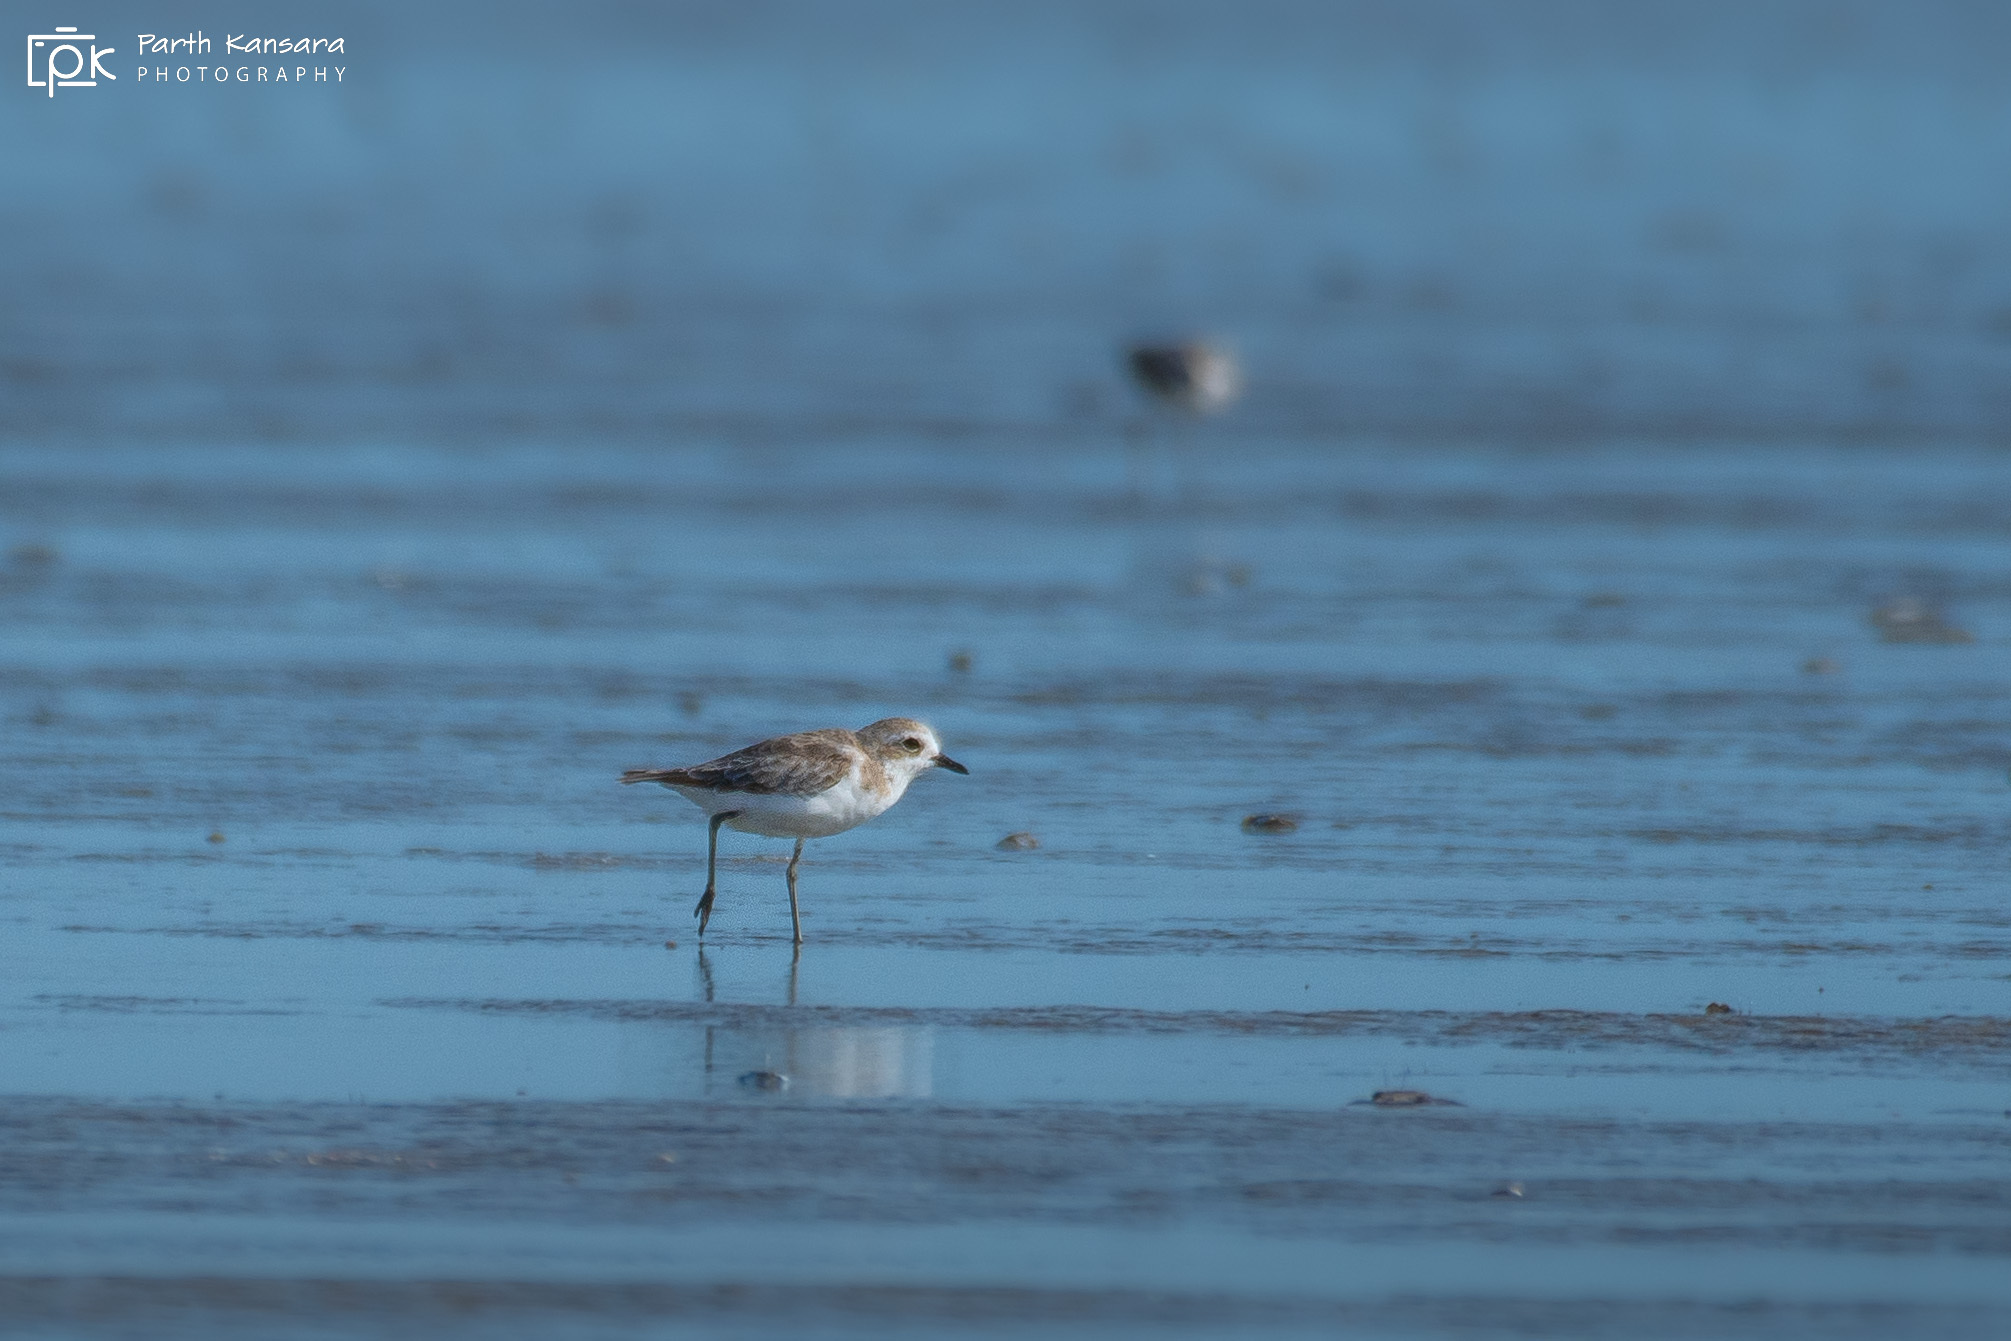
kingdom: Animalia
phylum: Chordata
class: Aves
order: Charadriiformes
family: Charadriidae
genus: Anarhynchus
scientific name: Anarhynchus
